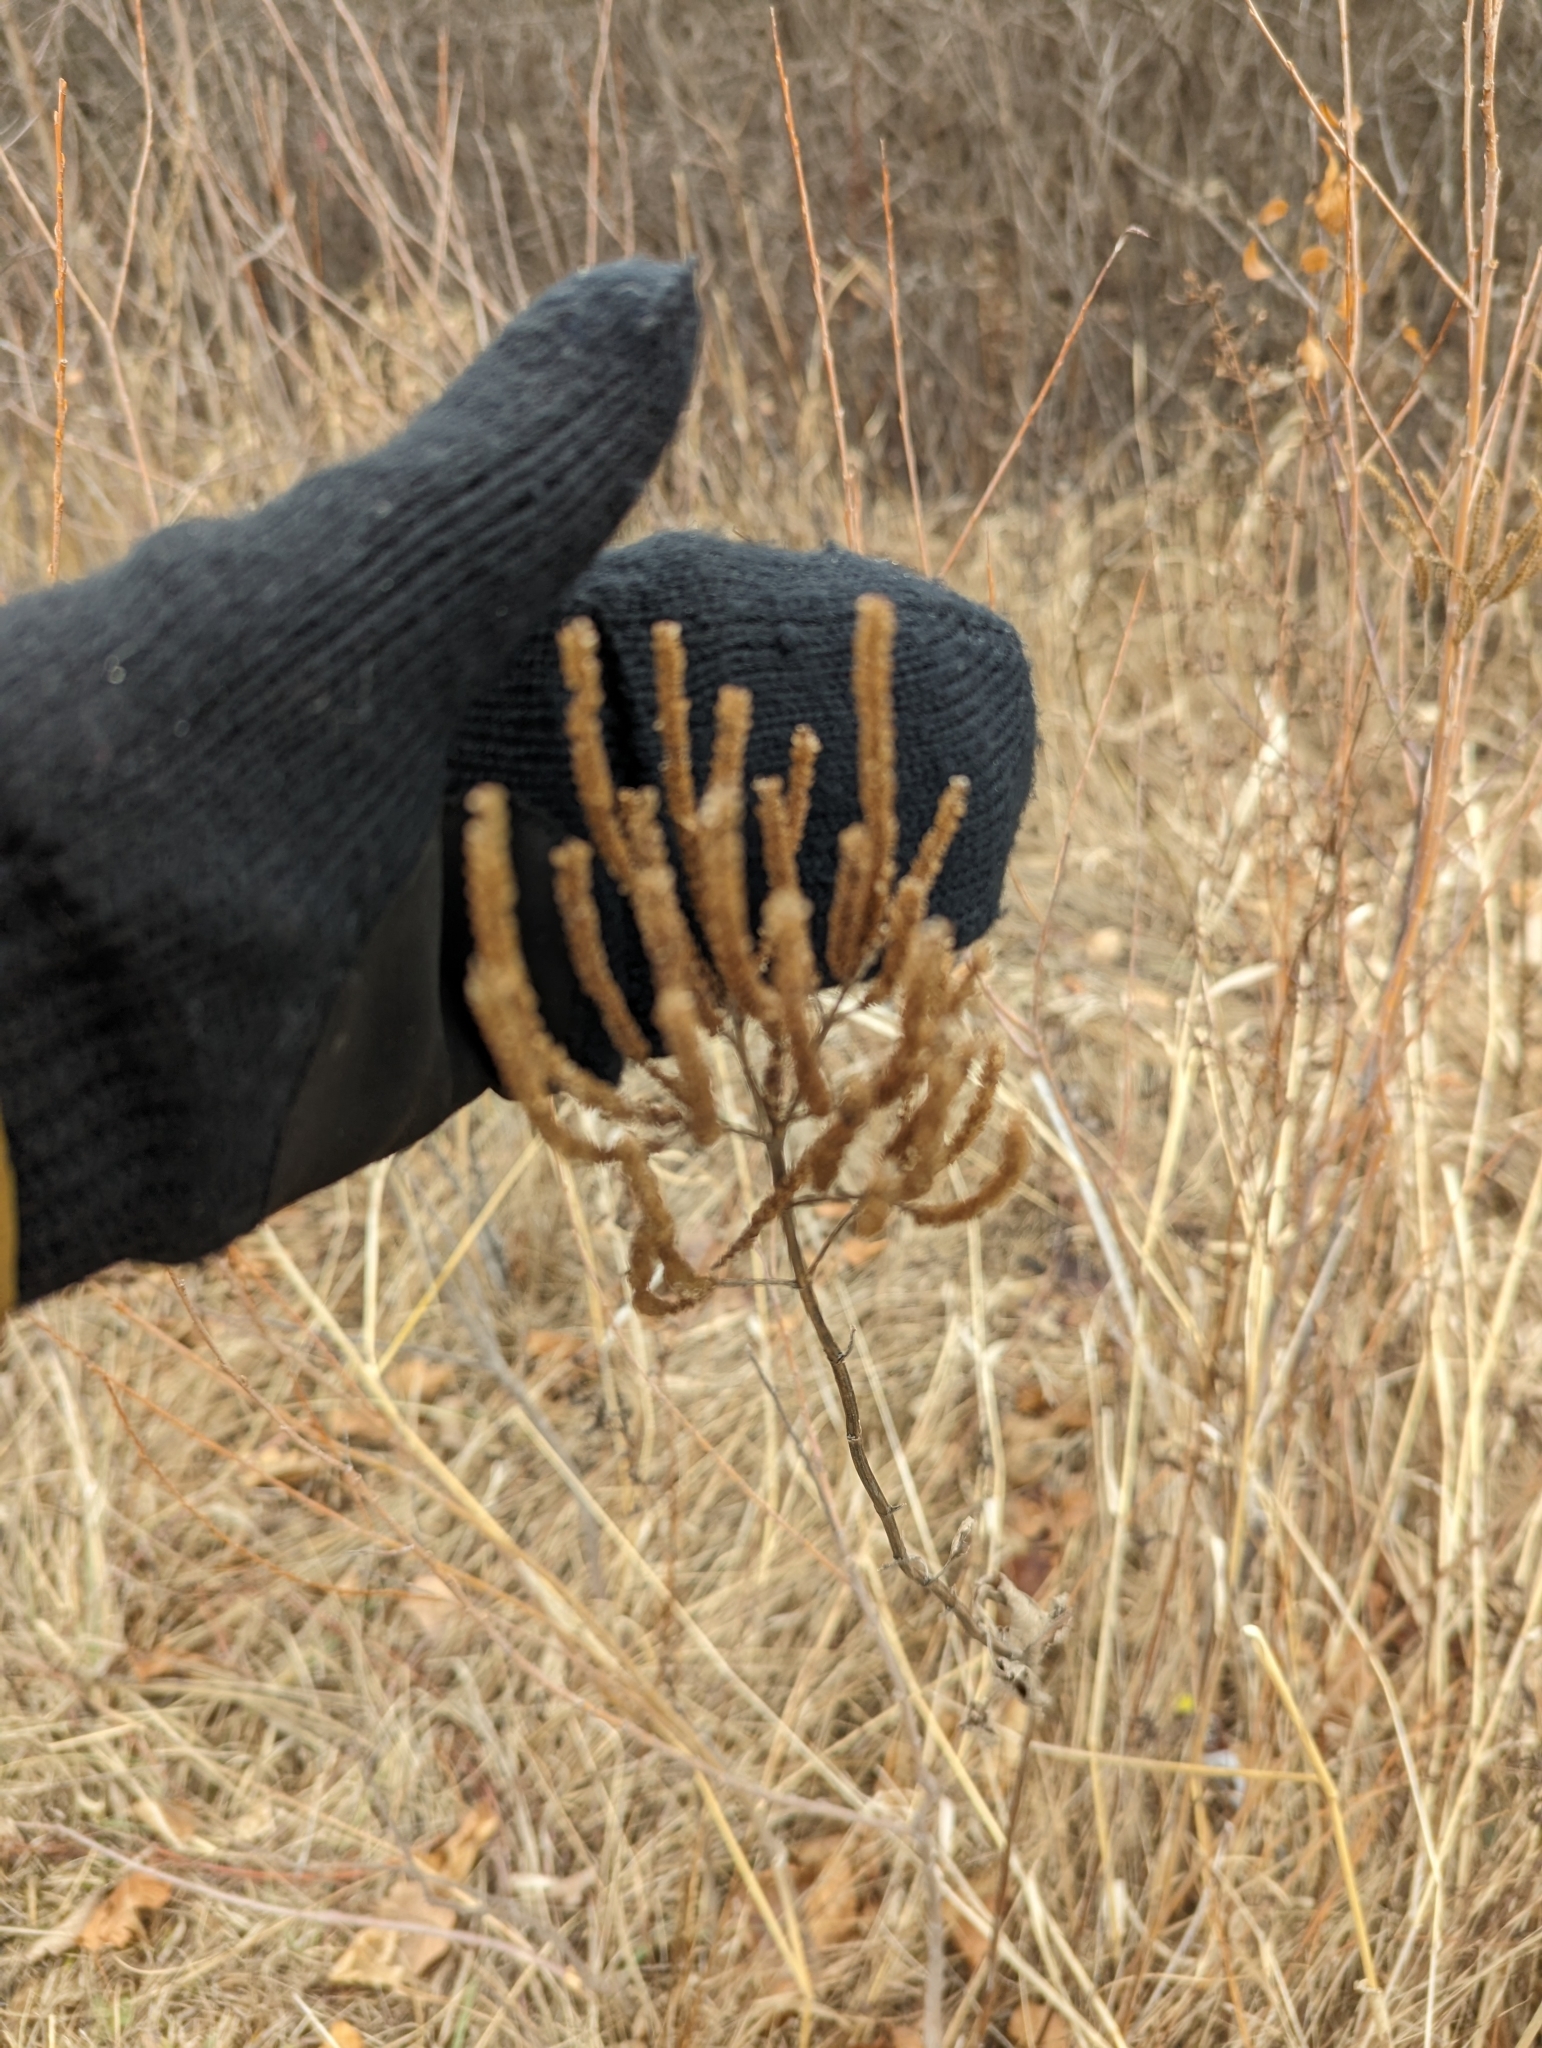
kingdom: Plantae
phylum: Tracheophyta
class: Magnoliopsida
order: Lamiales
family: Verbenaceae
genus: Verbena
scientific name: Verbena hastata
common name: American blue vervain
